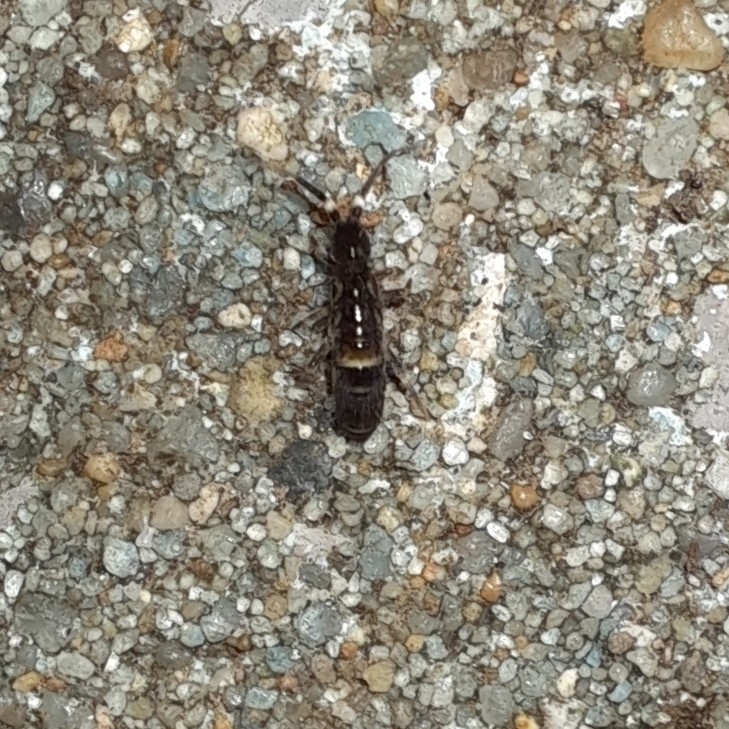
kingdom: Animalia
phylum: Arthropoda
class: Collembola
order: Entomobryomorpha
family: Orchesellidae
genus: Orchesella
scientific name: Orchesella cincta
